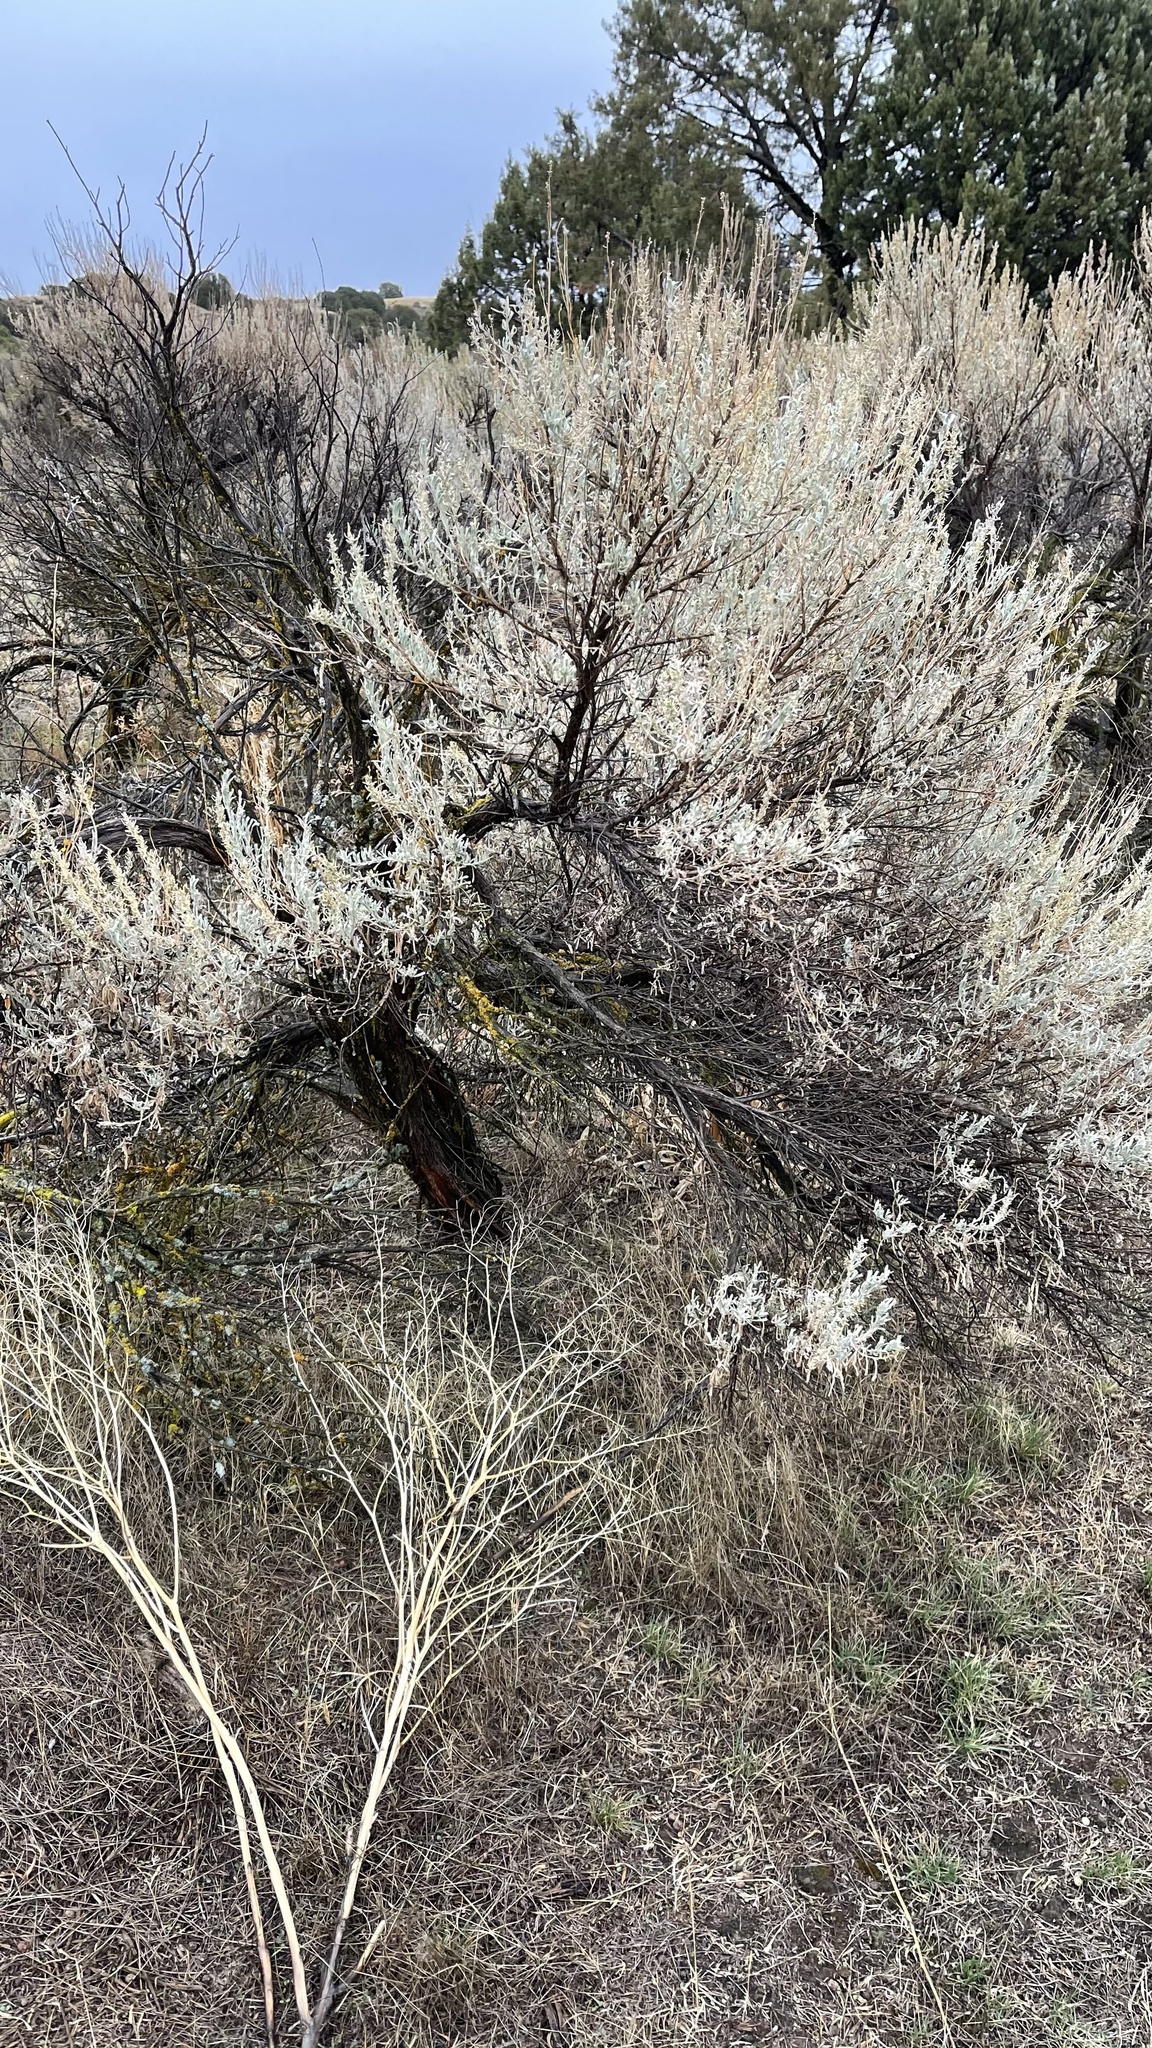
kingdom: Plantae
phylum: Tracheophyta
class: Magnoliopsida
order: Asterales
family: Asteraceae
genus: Artemisia
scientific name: Artemisia tridentata
